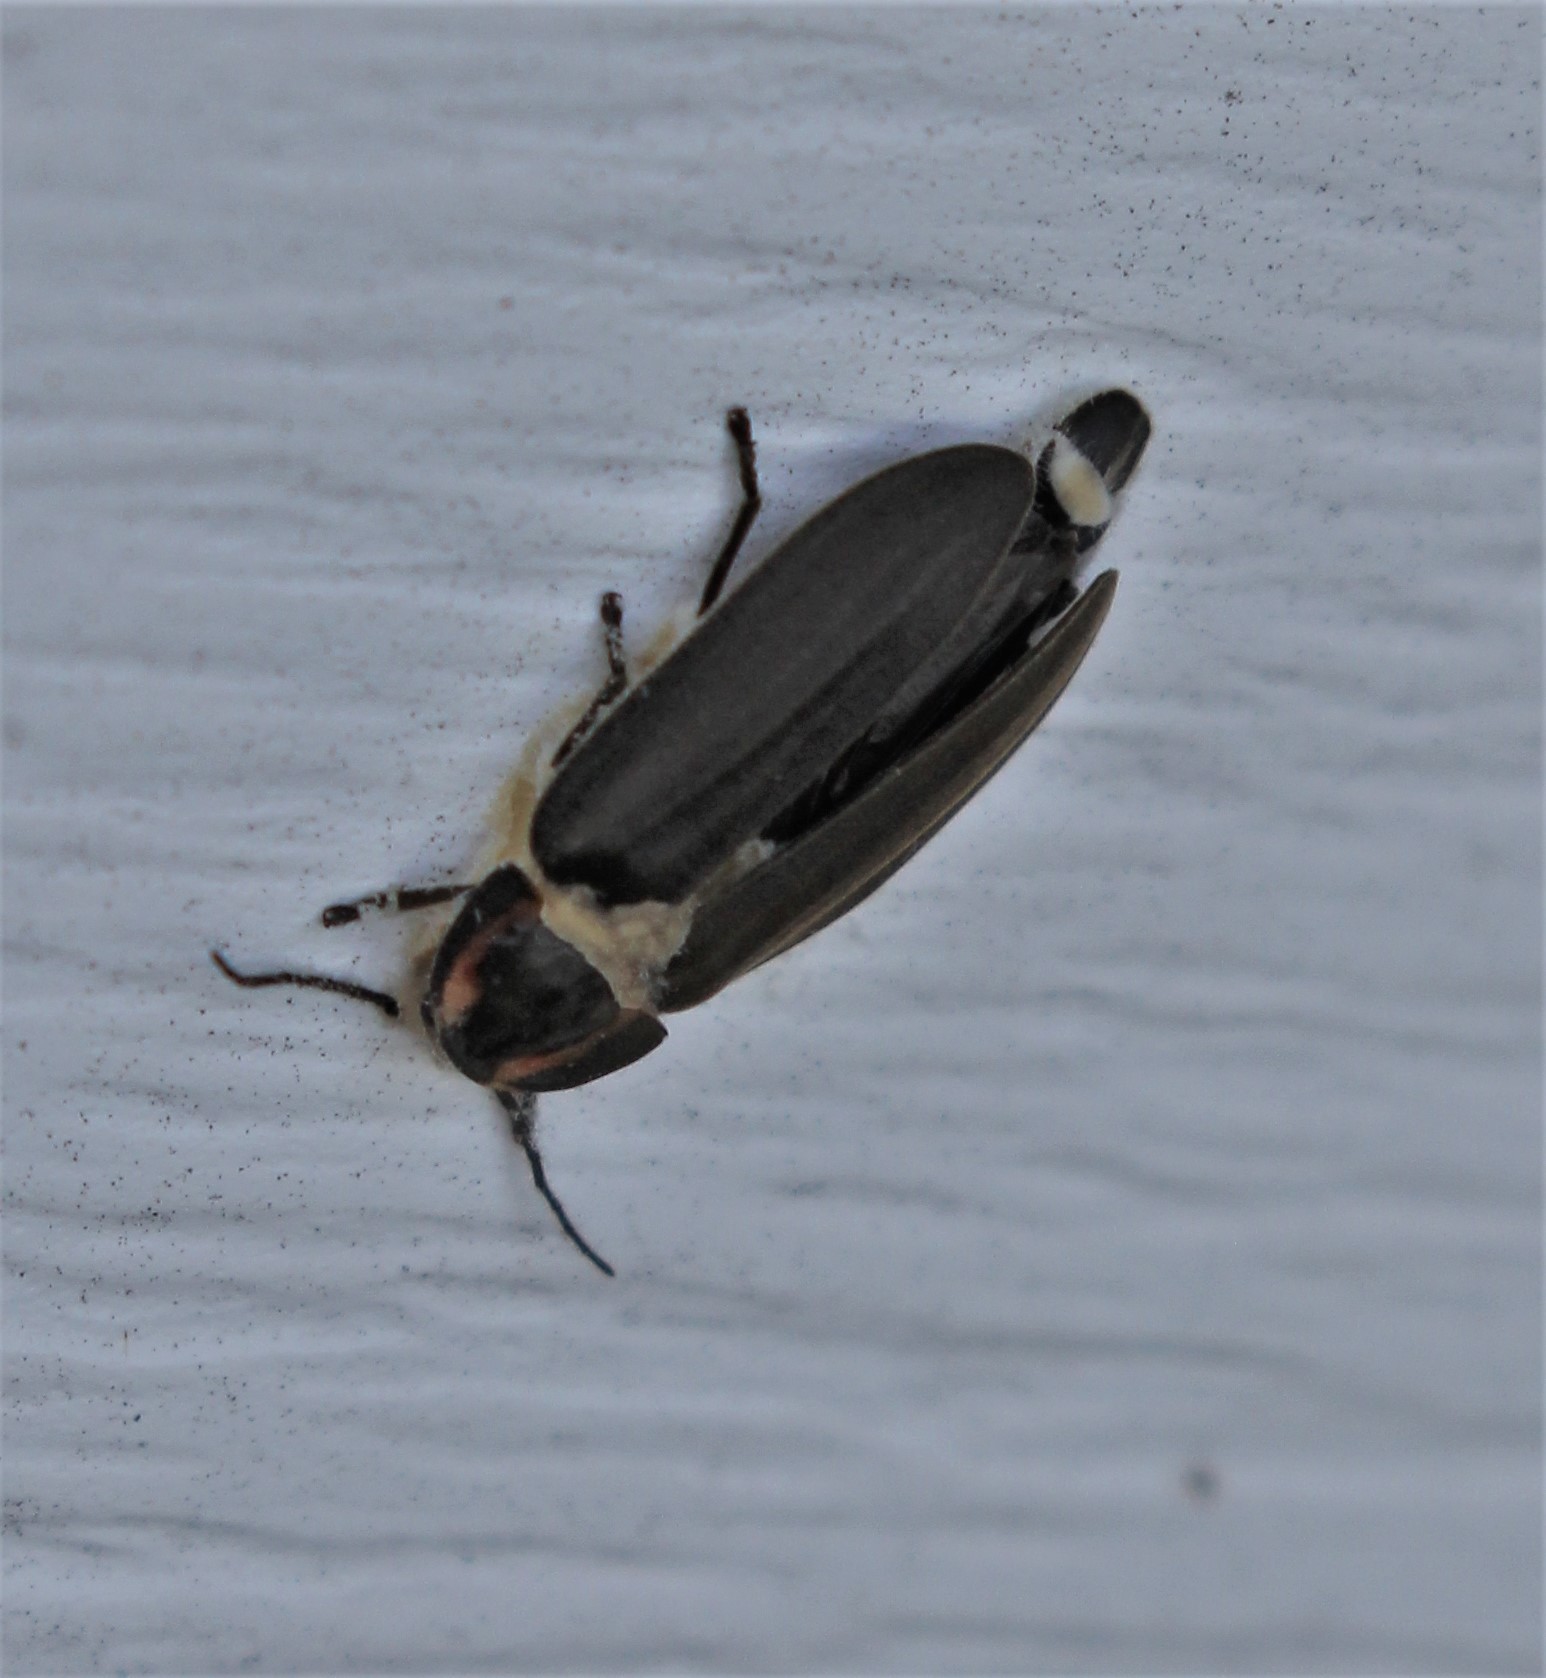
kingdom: Animalia
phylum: Arthropoda
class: Insecta
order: Coleoptera
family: Lampyridae
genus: Photinus
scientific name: Photinus corrusca
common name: Winter firefly
